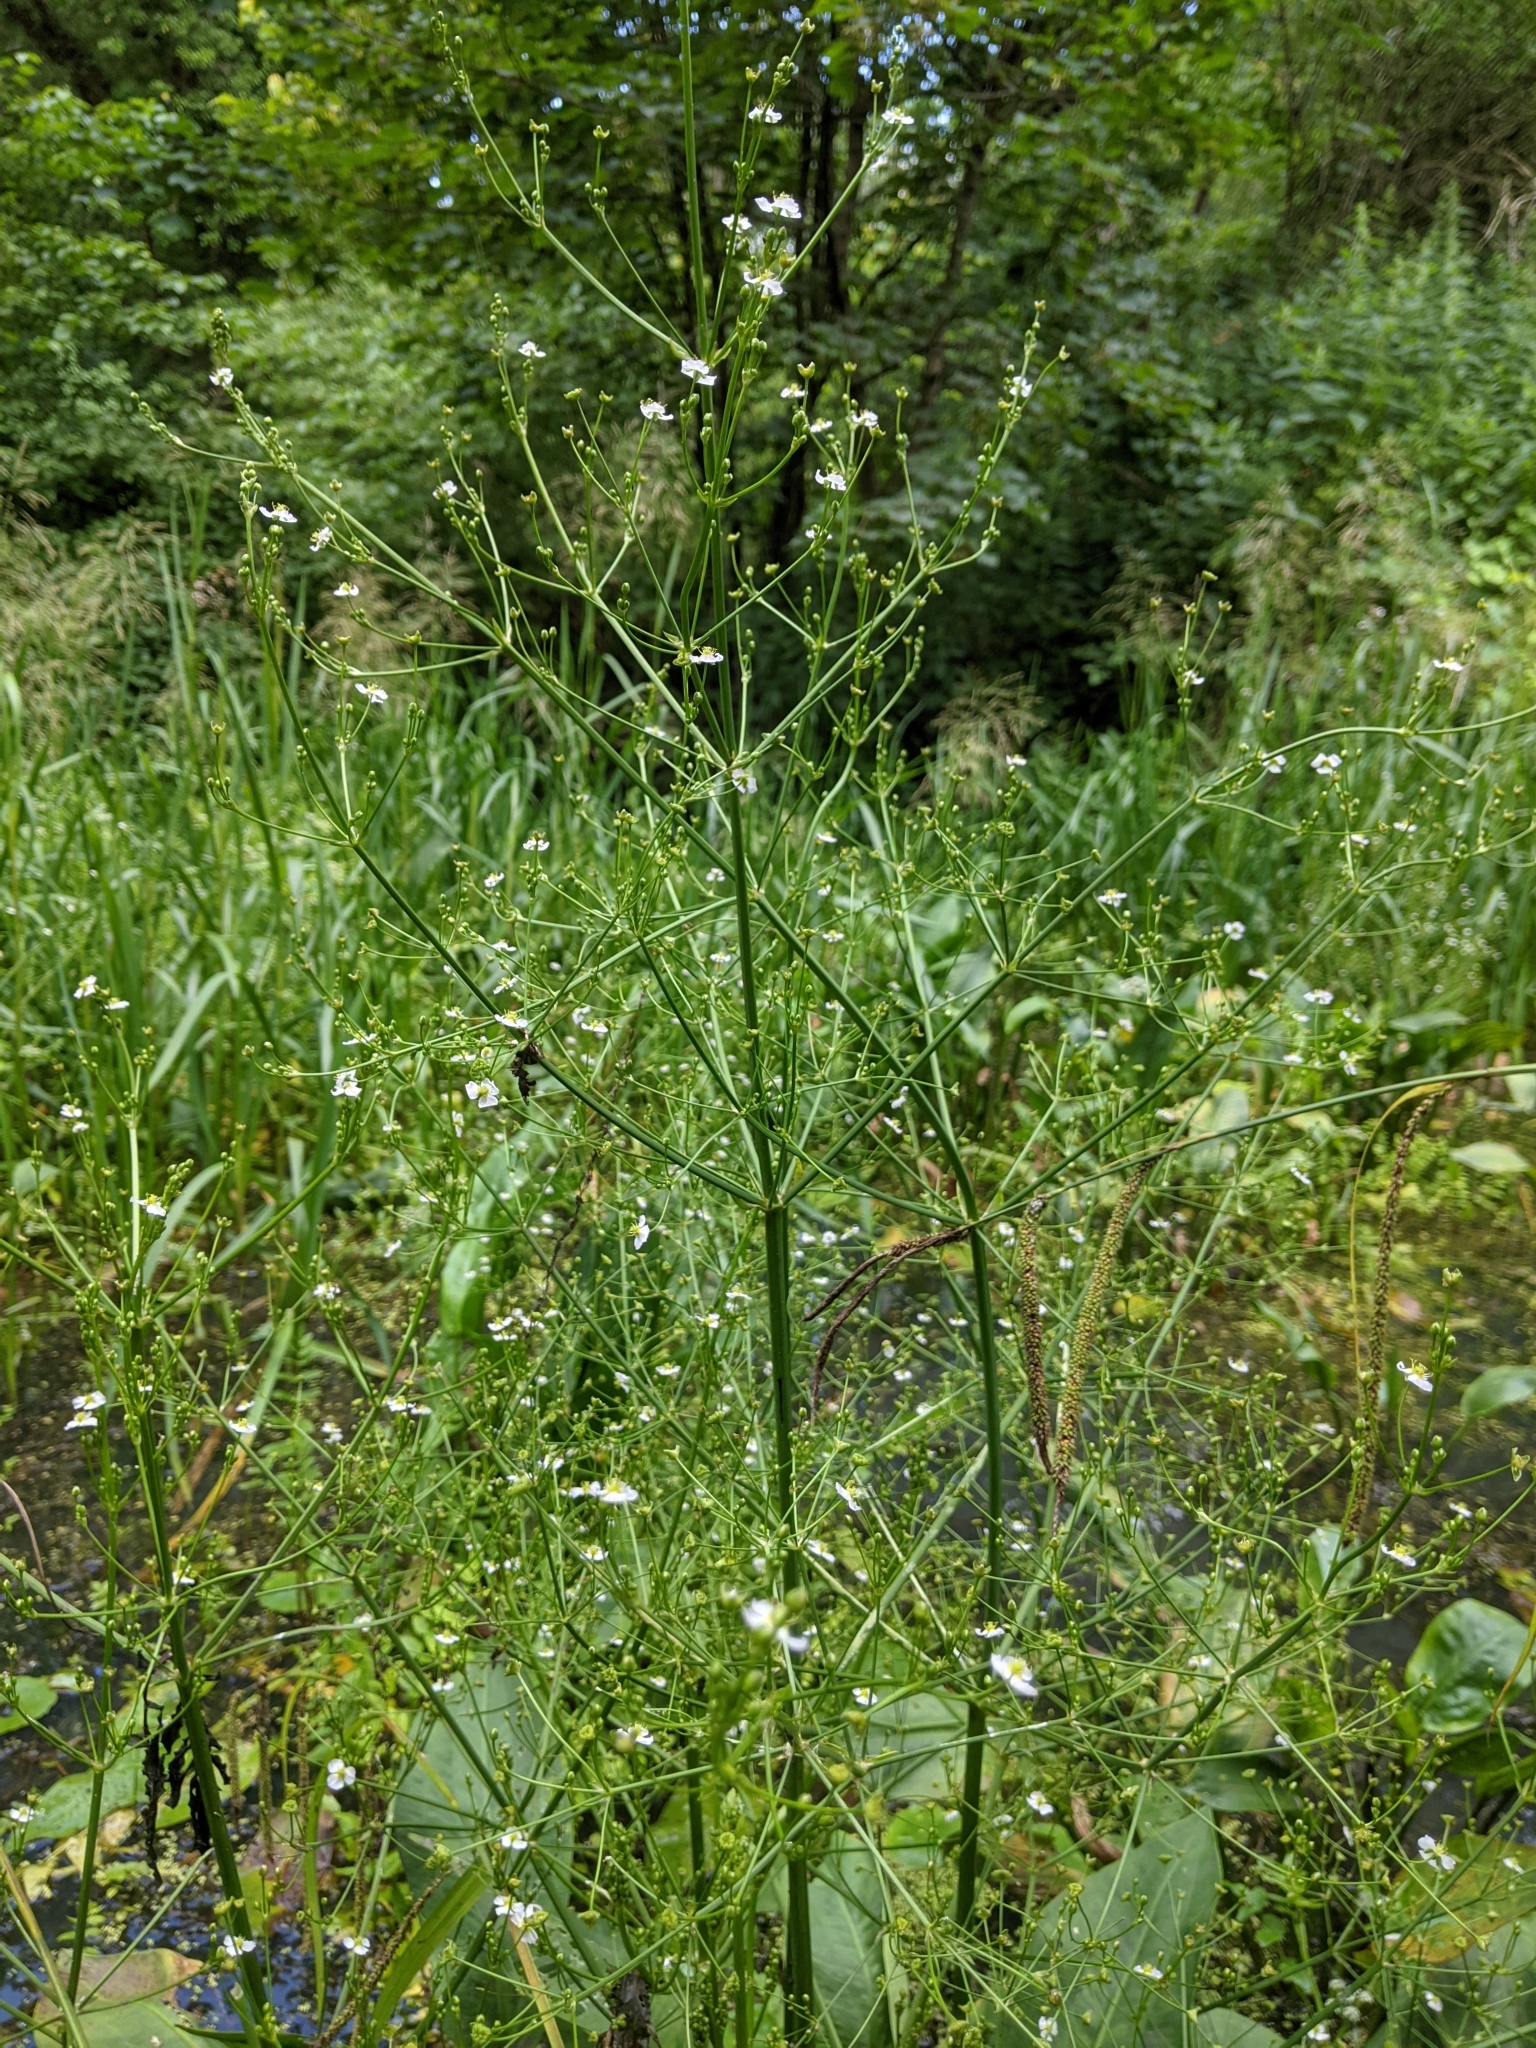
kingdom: Plantae
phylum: Tracheophyta
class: Liliopsida
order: Alismatales
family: Alismataceae
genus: Alisma
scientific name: Alisma plantago-aquatica
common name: Water-plantain
